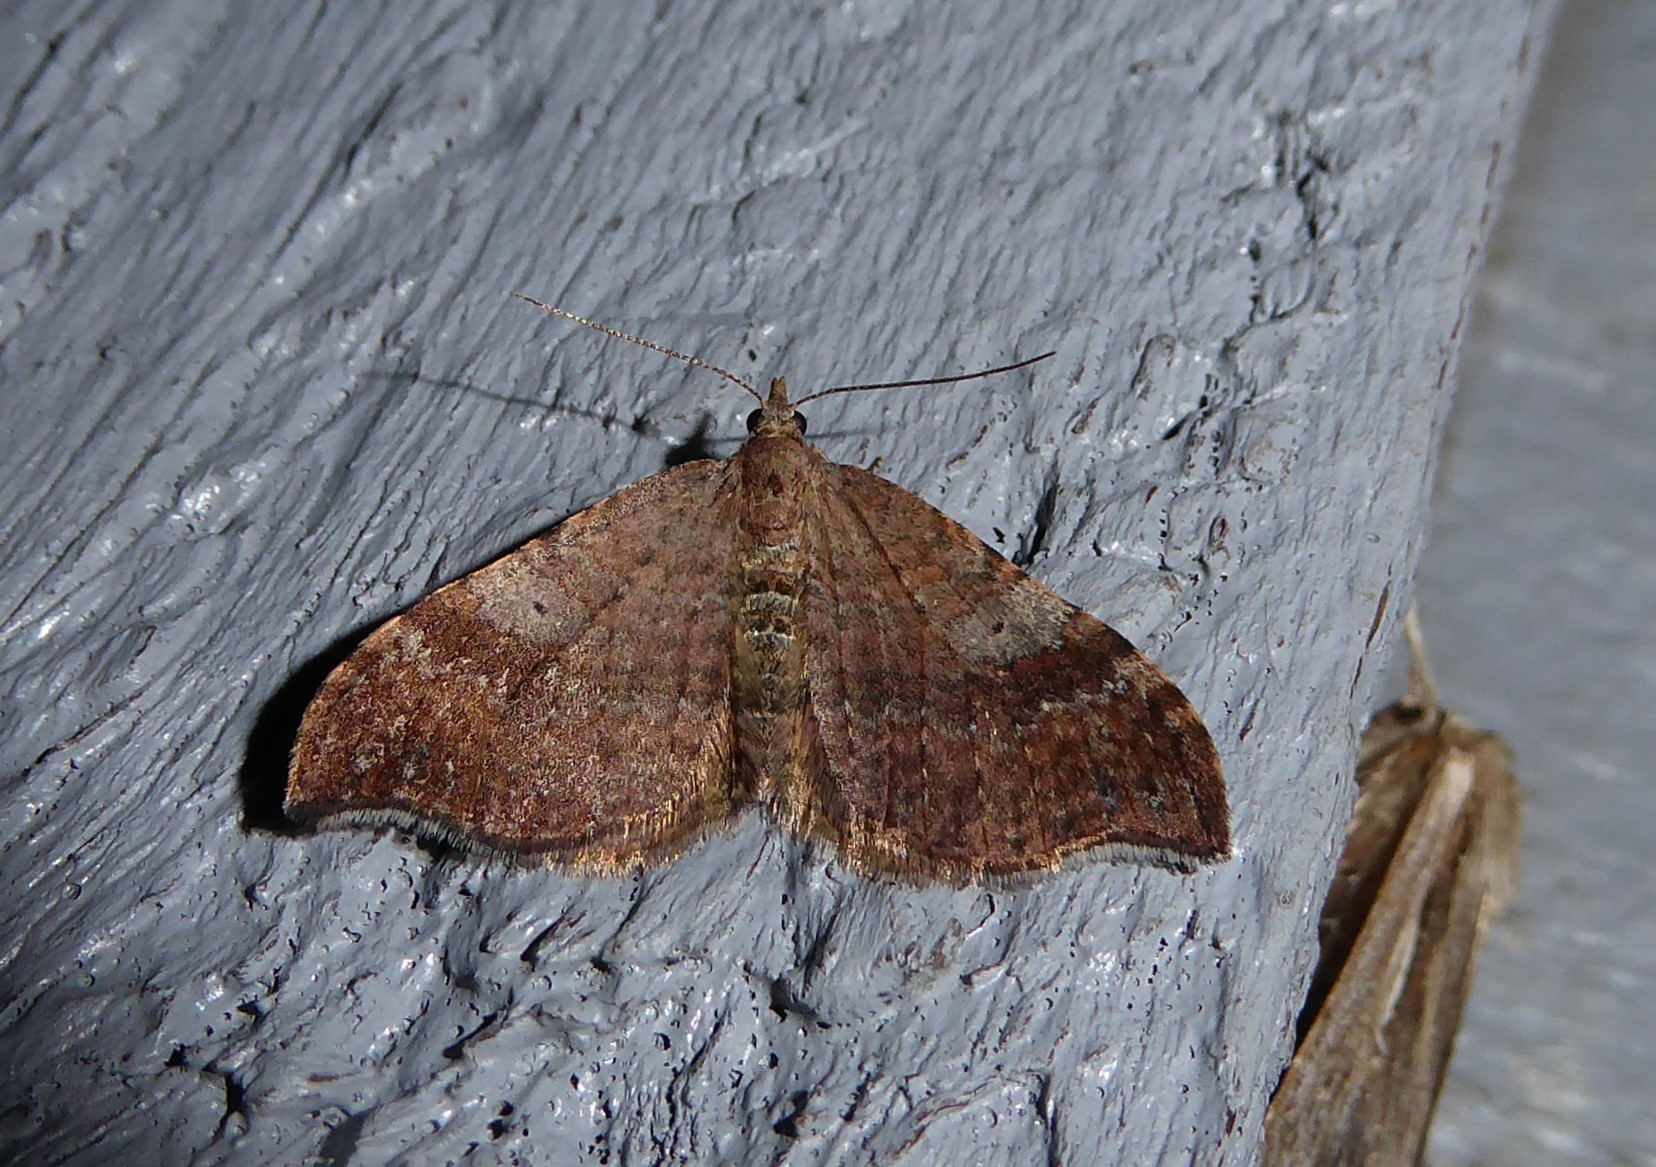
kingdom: Animalia
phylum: Arthropoda
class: Insecta
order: Lepidoptera
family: Geometridae
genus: Homodotis
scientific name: Homodotis megaspilata
